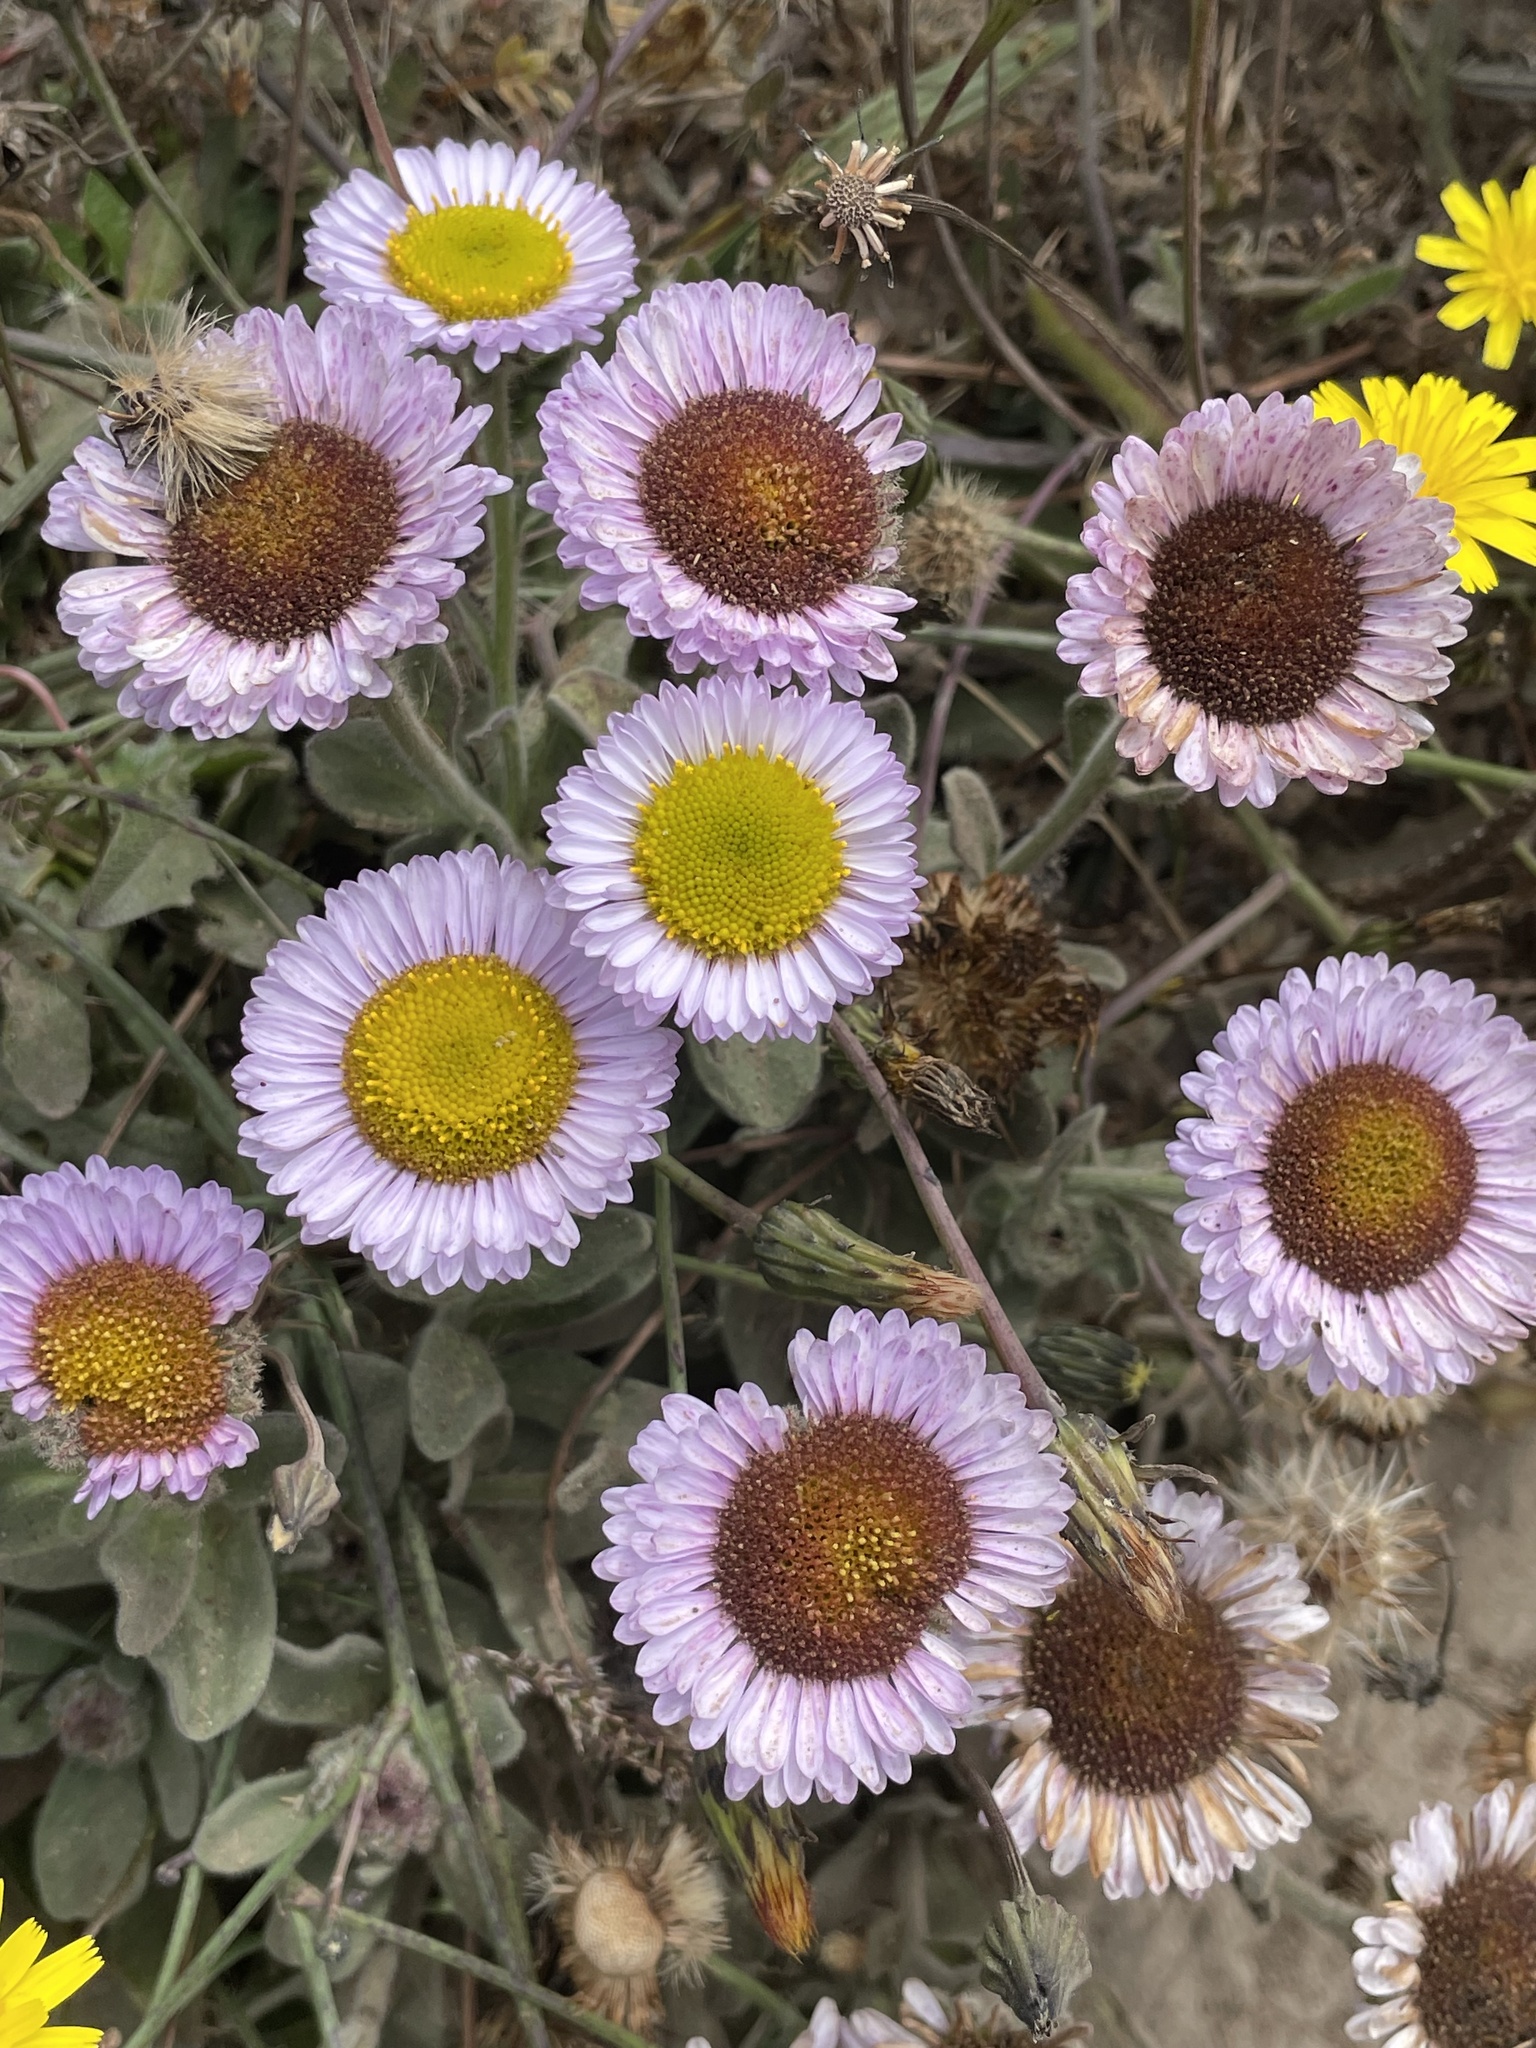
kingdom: Plantae
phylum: Tracheophyta
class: Magnoliopsida
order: Asterales
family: Asteraceae
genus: Erigeron
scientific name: Erigeron glaucus
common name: Seaside daisy
